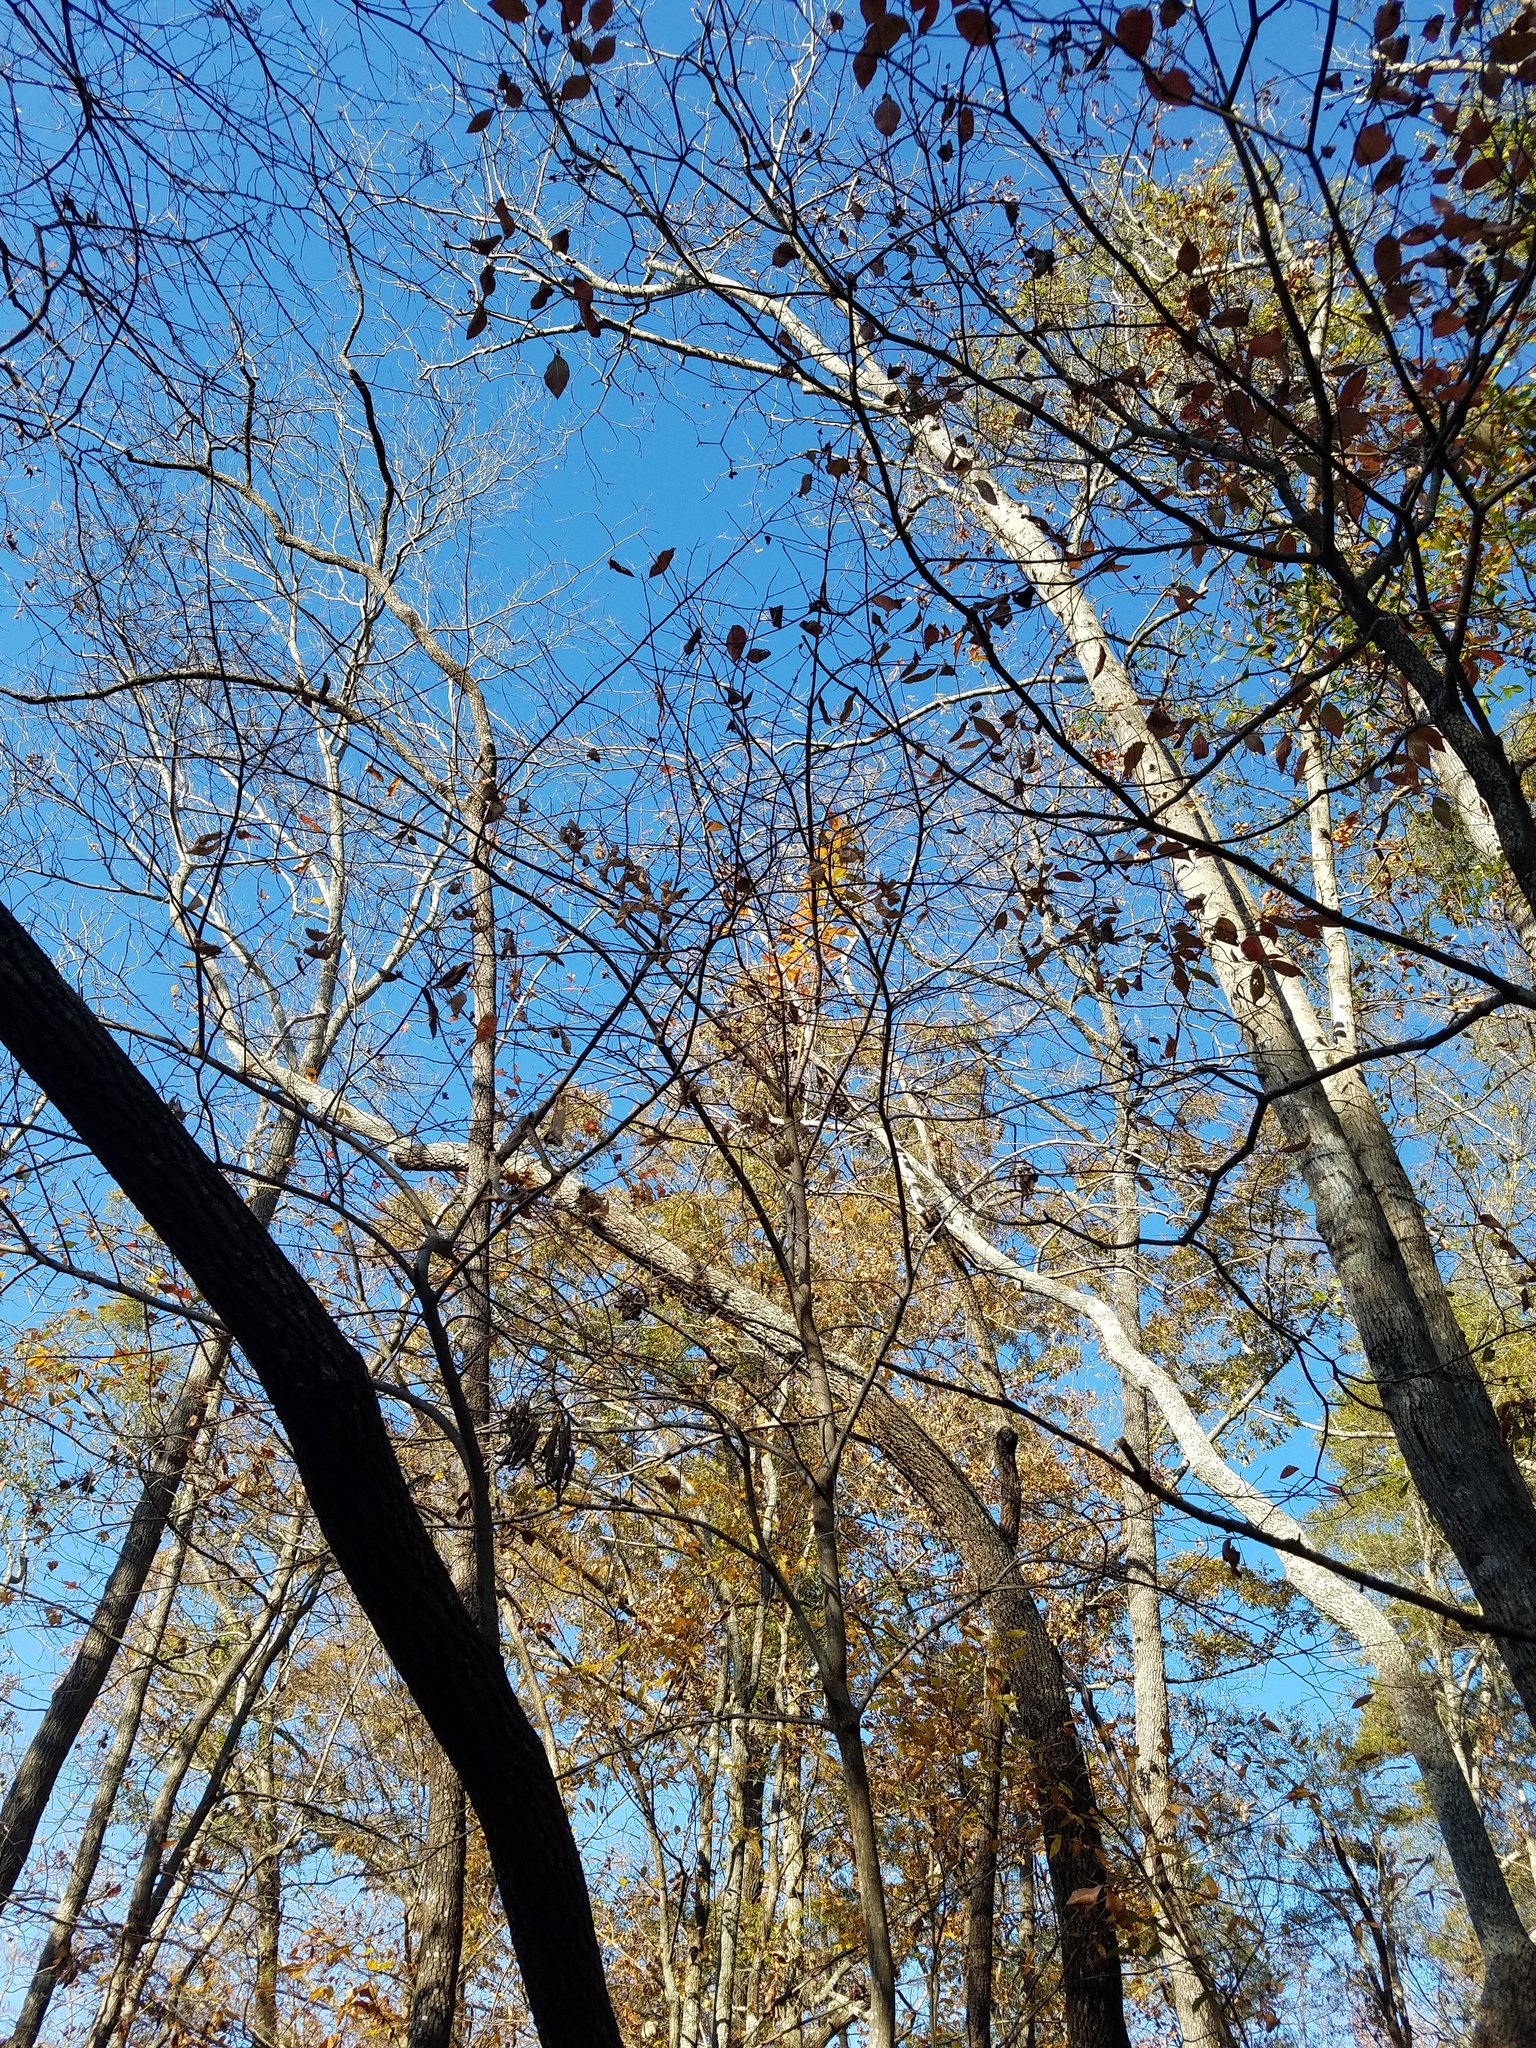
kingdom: Plantae
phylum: Tracheophyta
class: Magnoliopsida
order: Ericales
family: Ericaceae
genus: Oxydendrum
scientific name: Oxydendrum arboreum
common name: Sourwood
